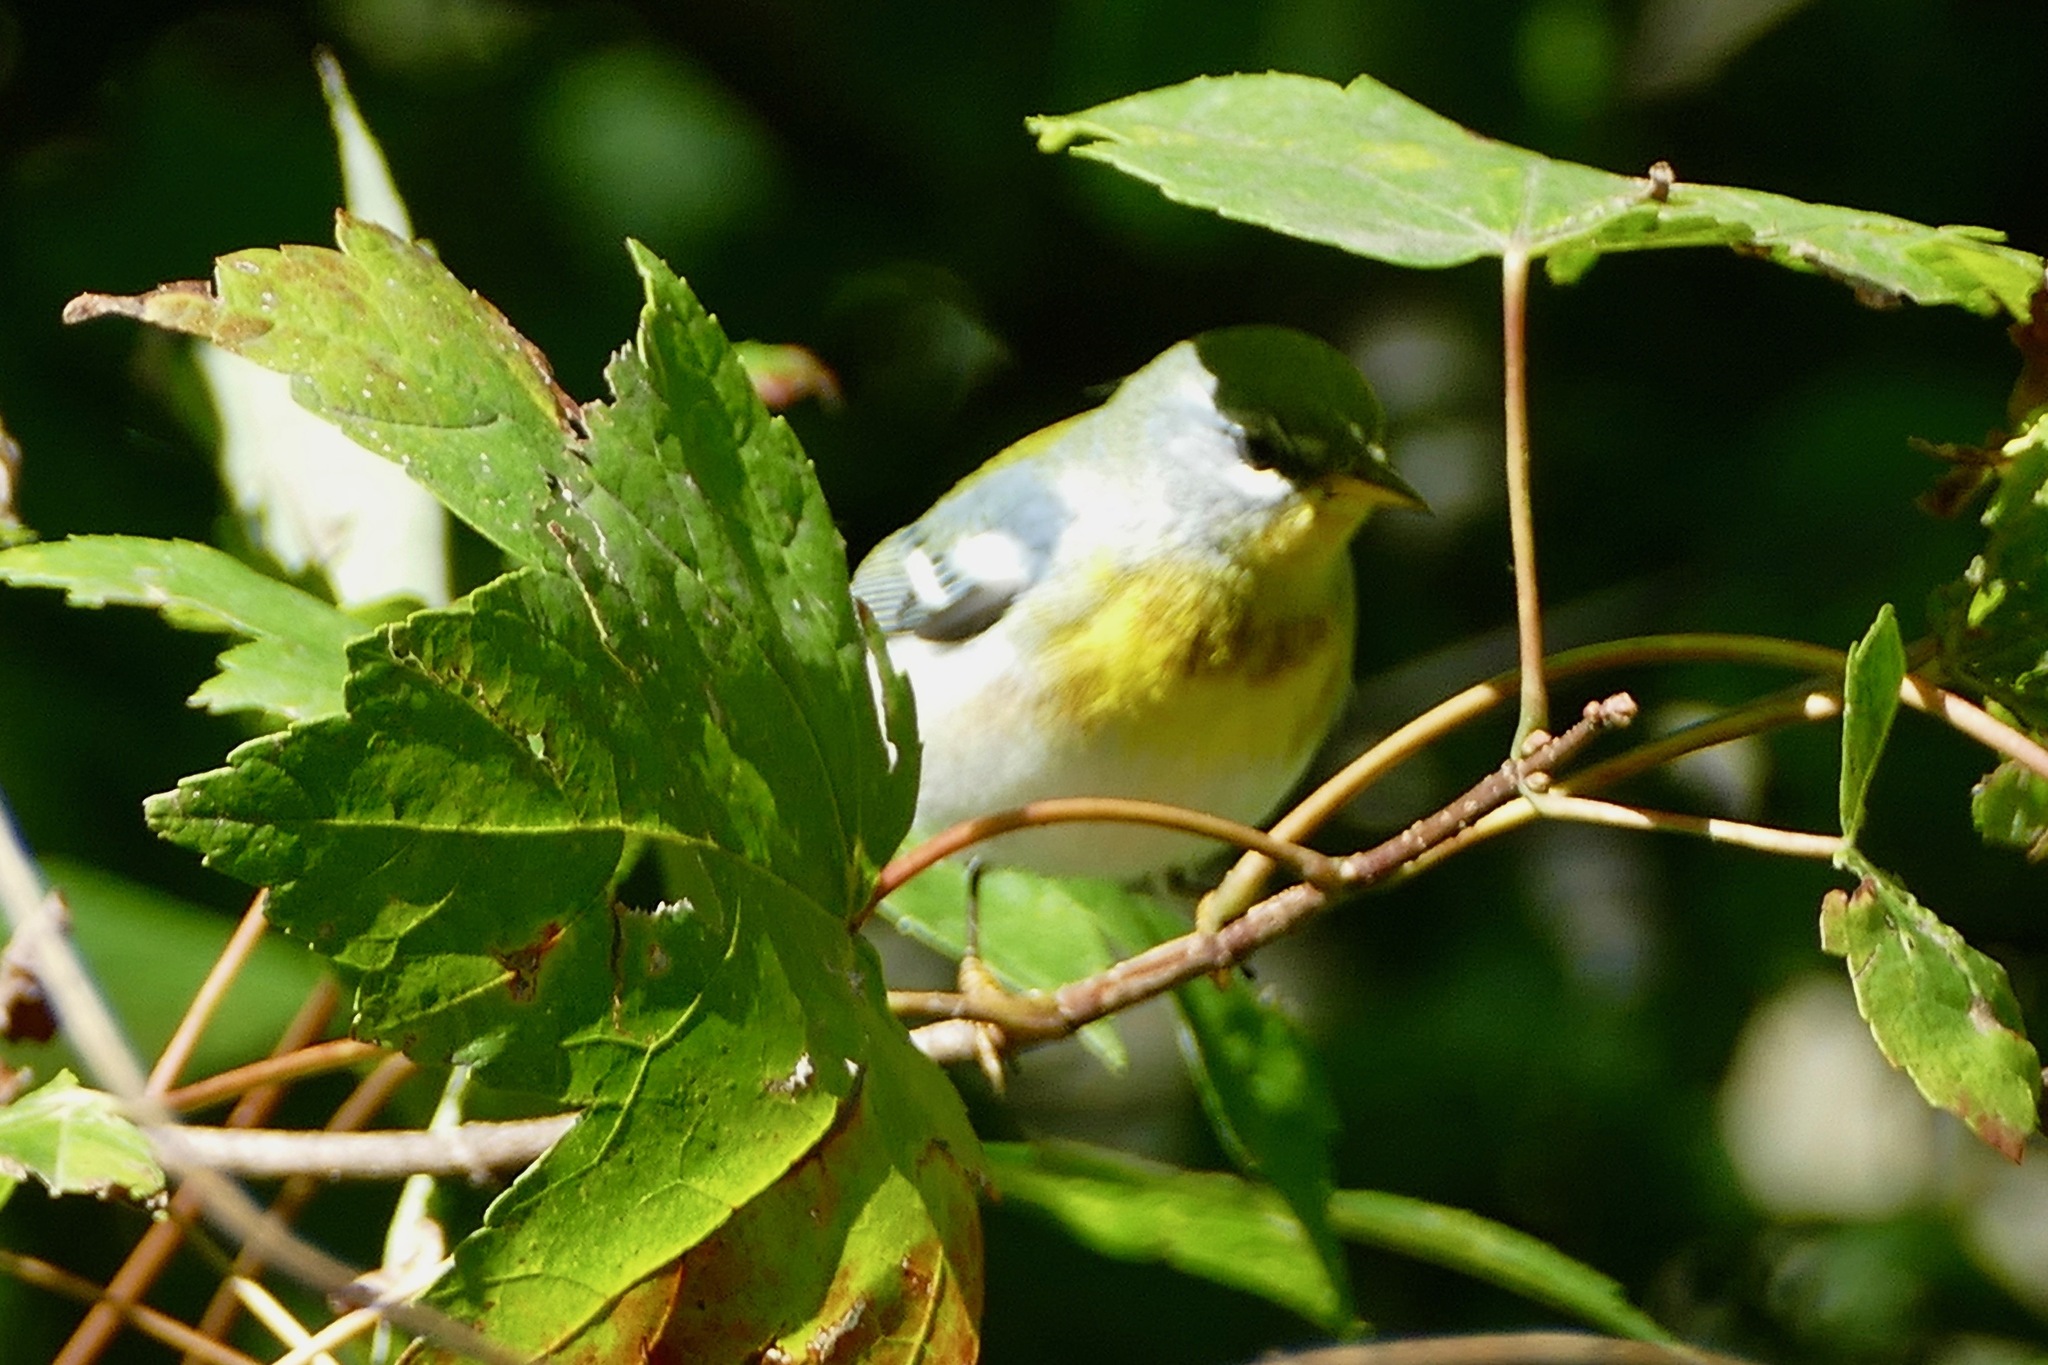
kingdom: Animalia
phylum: Chordata
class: Aves
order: Passeriformes
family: Parulidae
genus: Setophaga
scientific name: Setophaga americana
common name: Northern parula
